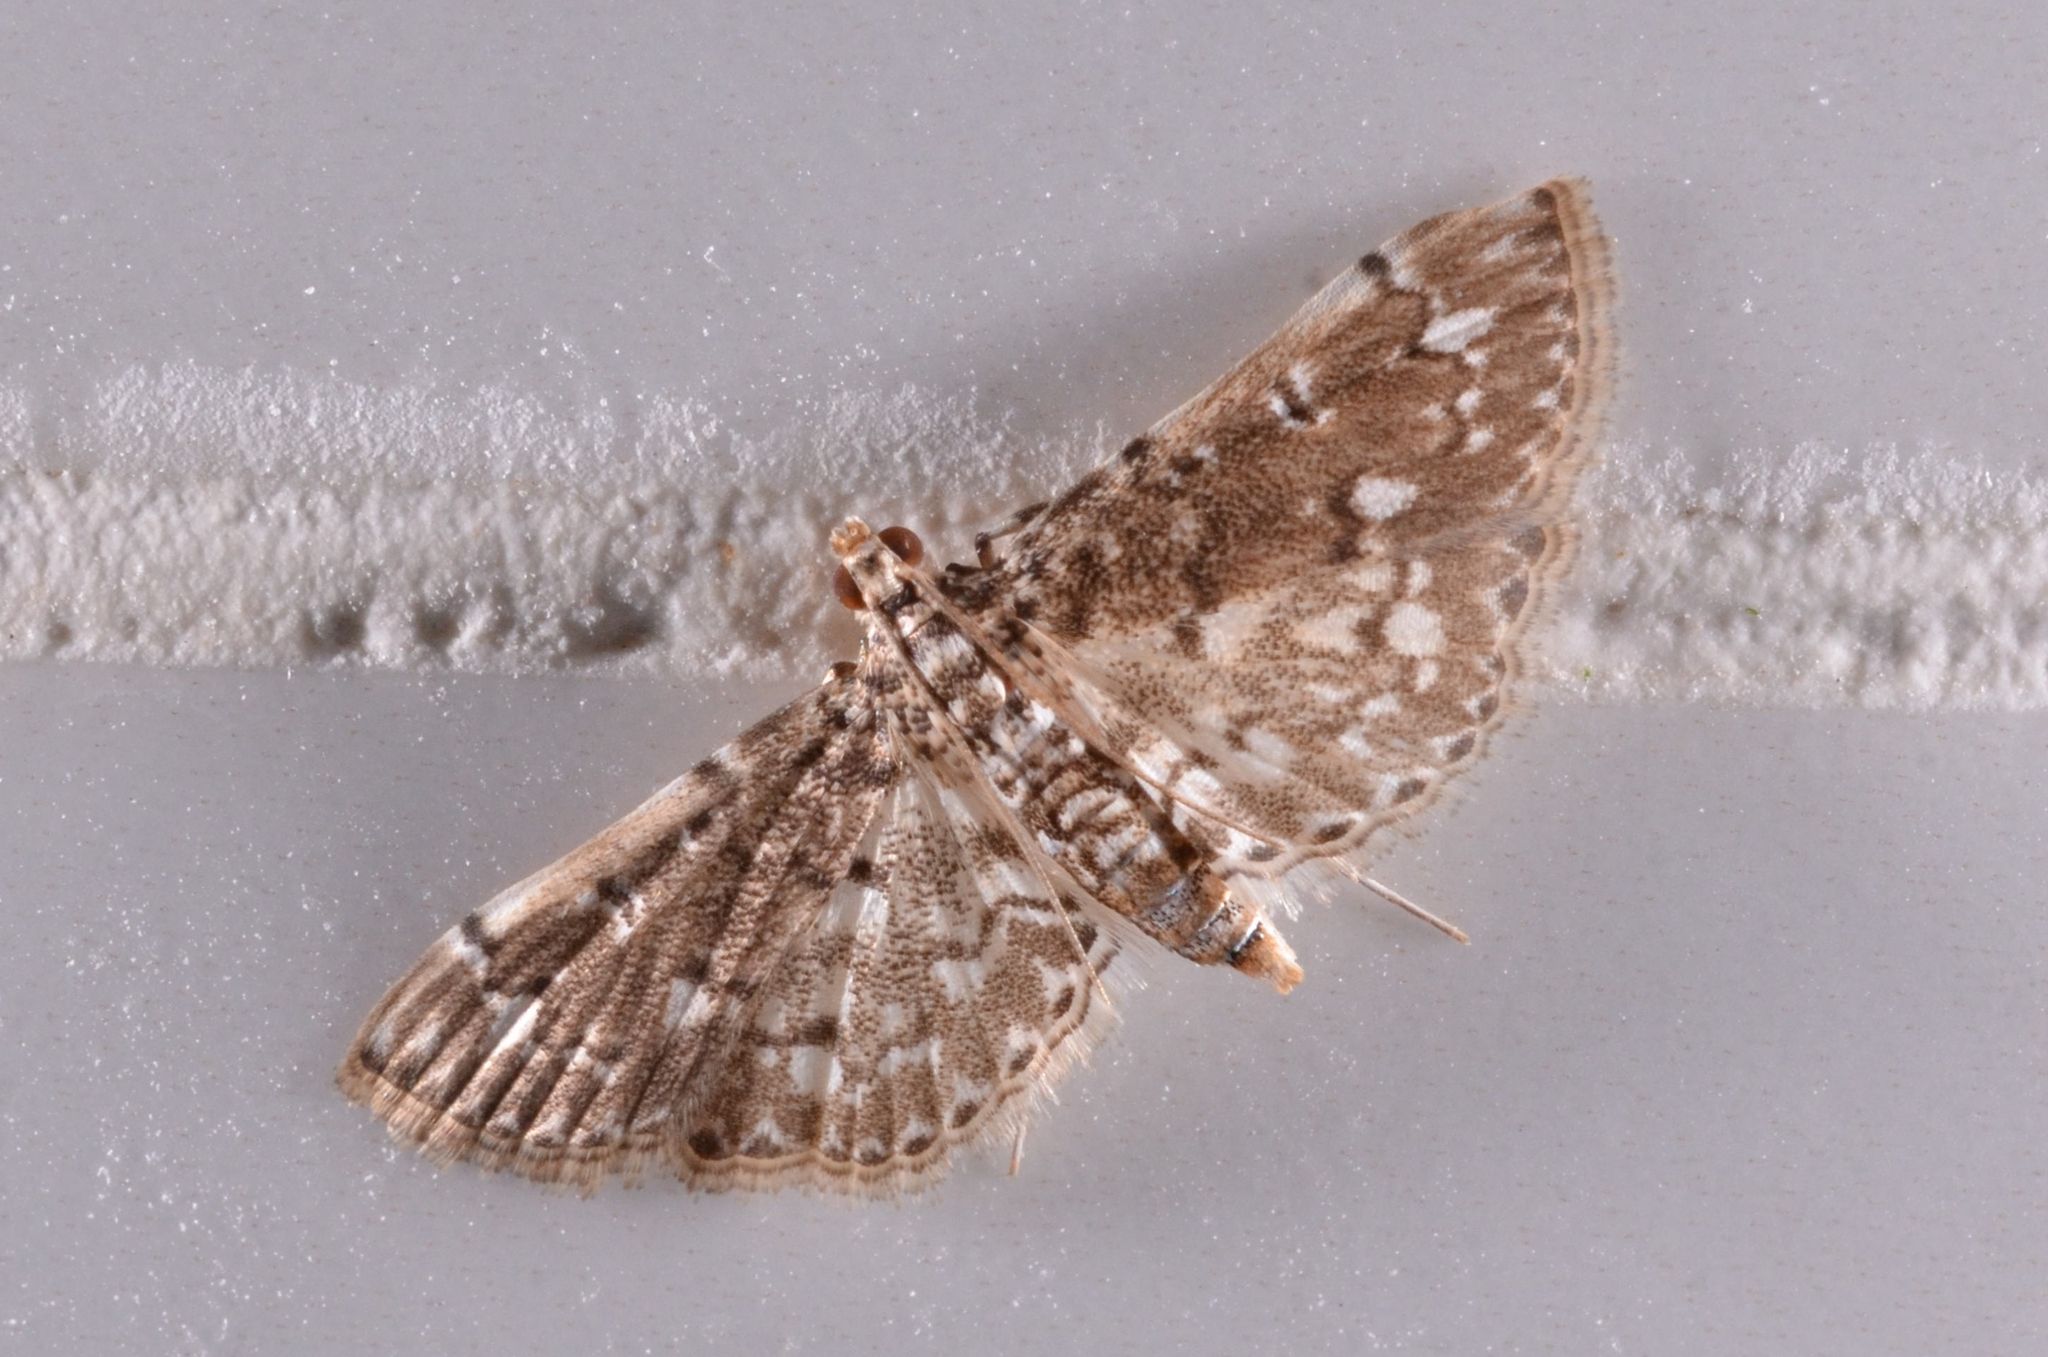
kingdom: Animalia
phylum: Arthropoda
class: Insecta
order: Lepidoptera
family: Crambidae
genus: Metoeca
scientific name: Metoeca foedalis
